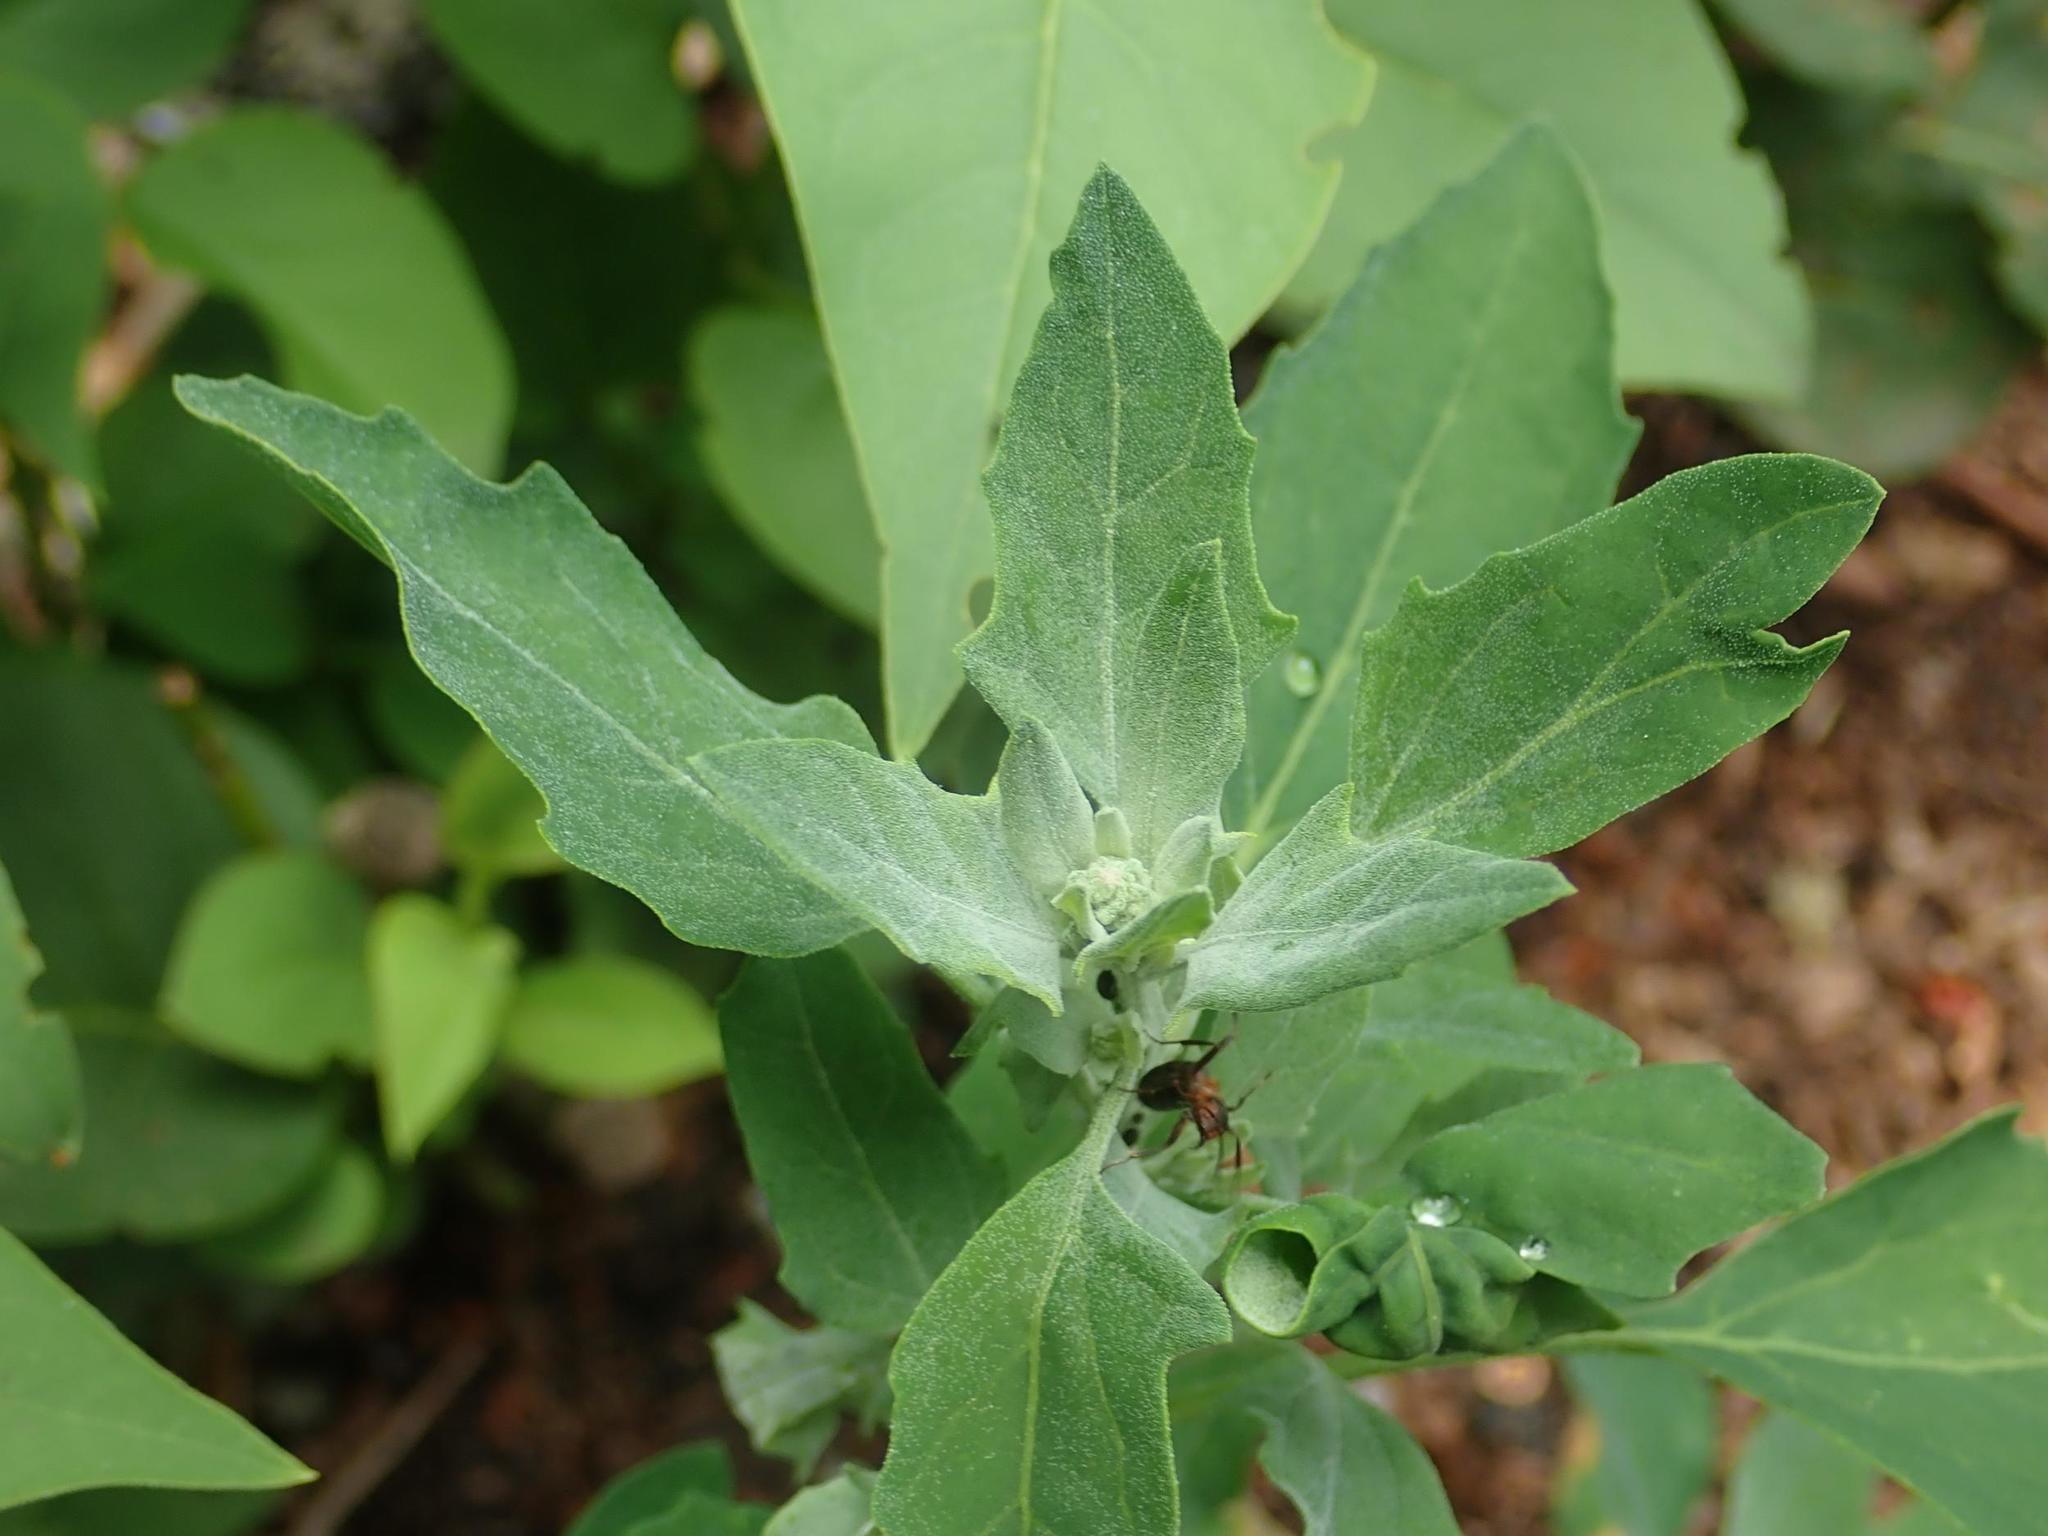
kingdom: Plantae
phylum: Tracheophyta
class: Magnoliopsida
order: Caryophyllales
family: Amaranthaceae
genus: Chenopodium
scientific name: Chenopodium album
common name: Fat-hen
